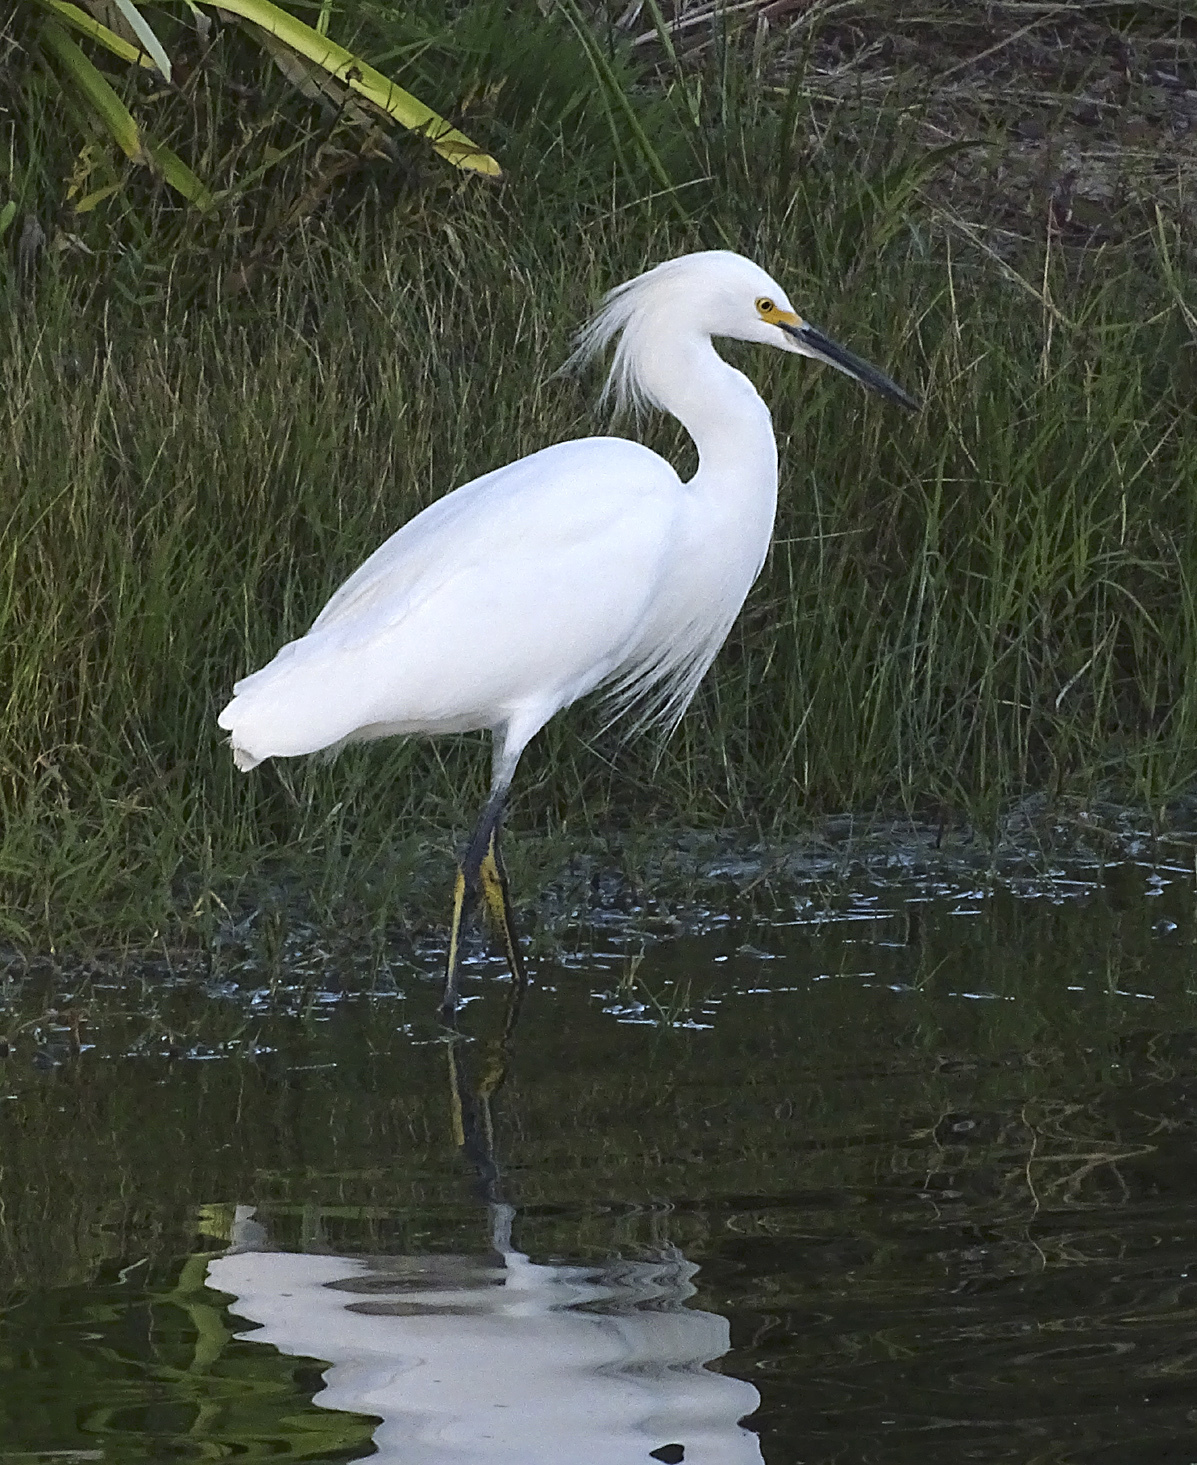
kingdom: Animalia
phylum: Chordata
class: Aves
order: Pelecaniformes
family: Ardeidae
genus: Egretta
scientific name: Egretta thula
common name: Snowy egret
